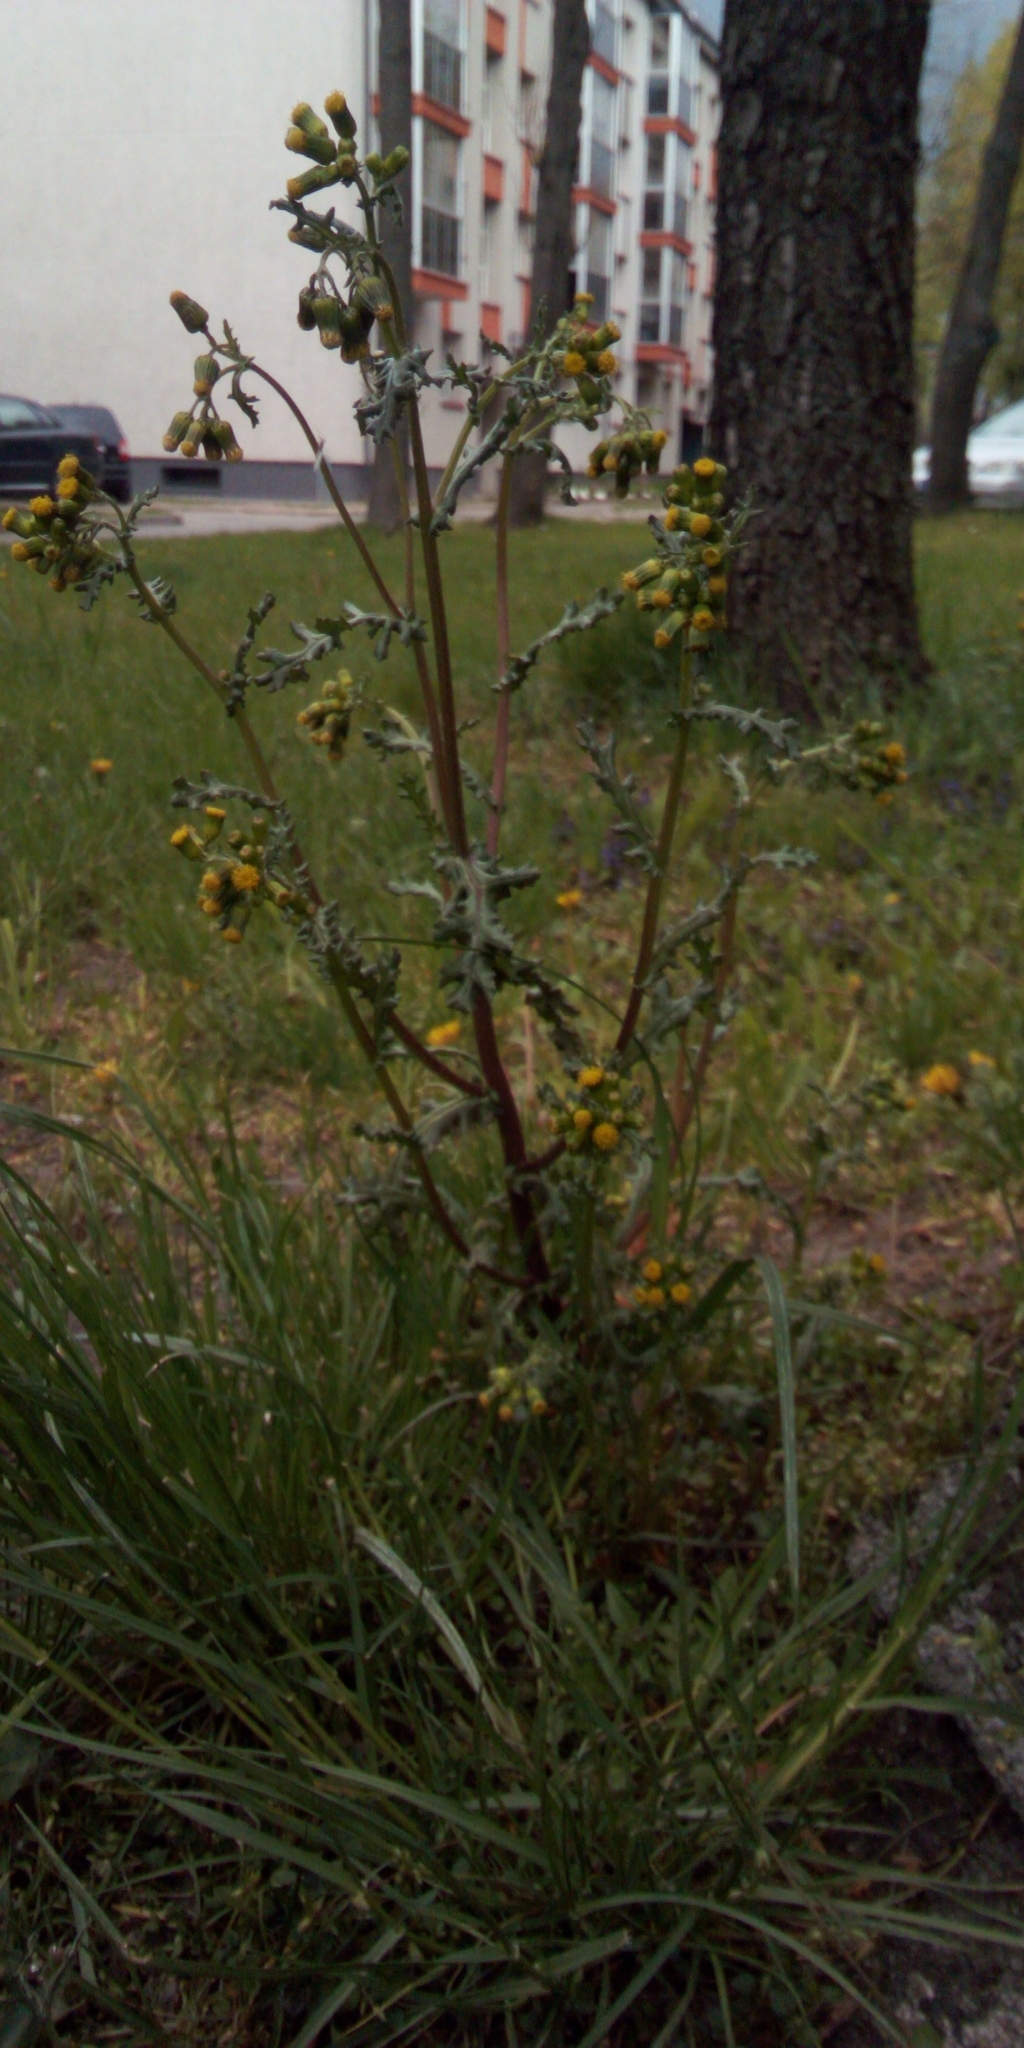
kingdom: Plantae
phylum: Tracheophyta
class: Magnoliopsida
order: Asterales
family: Asteraceae
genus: Senecio
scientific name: Senecio vulgaris
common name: Old-man-in-the-spring
